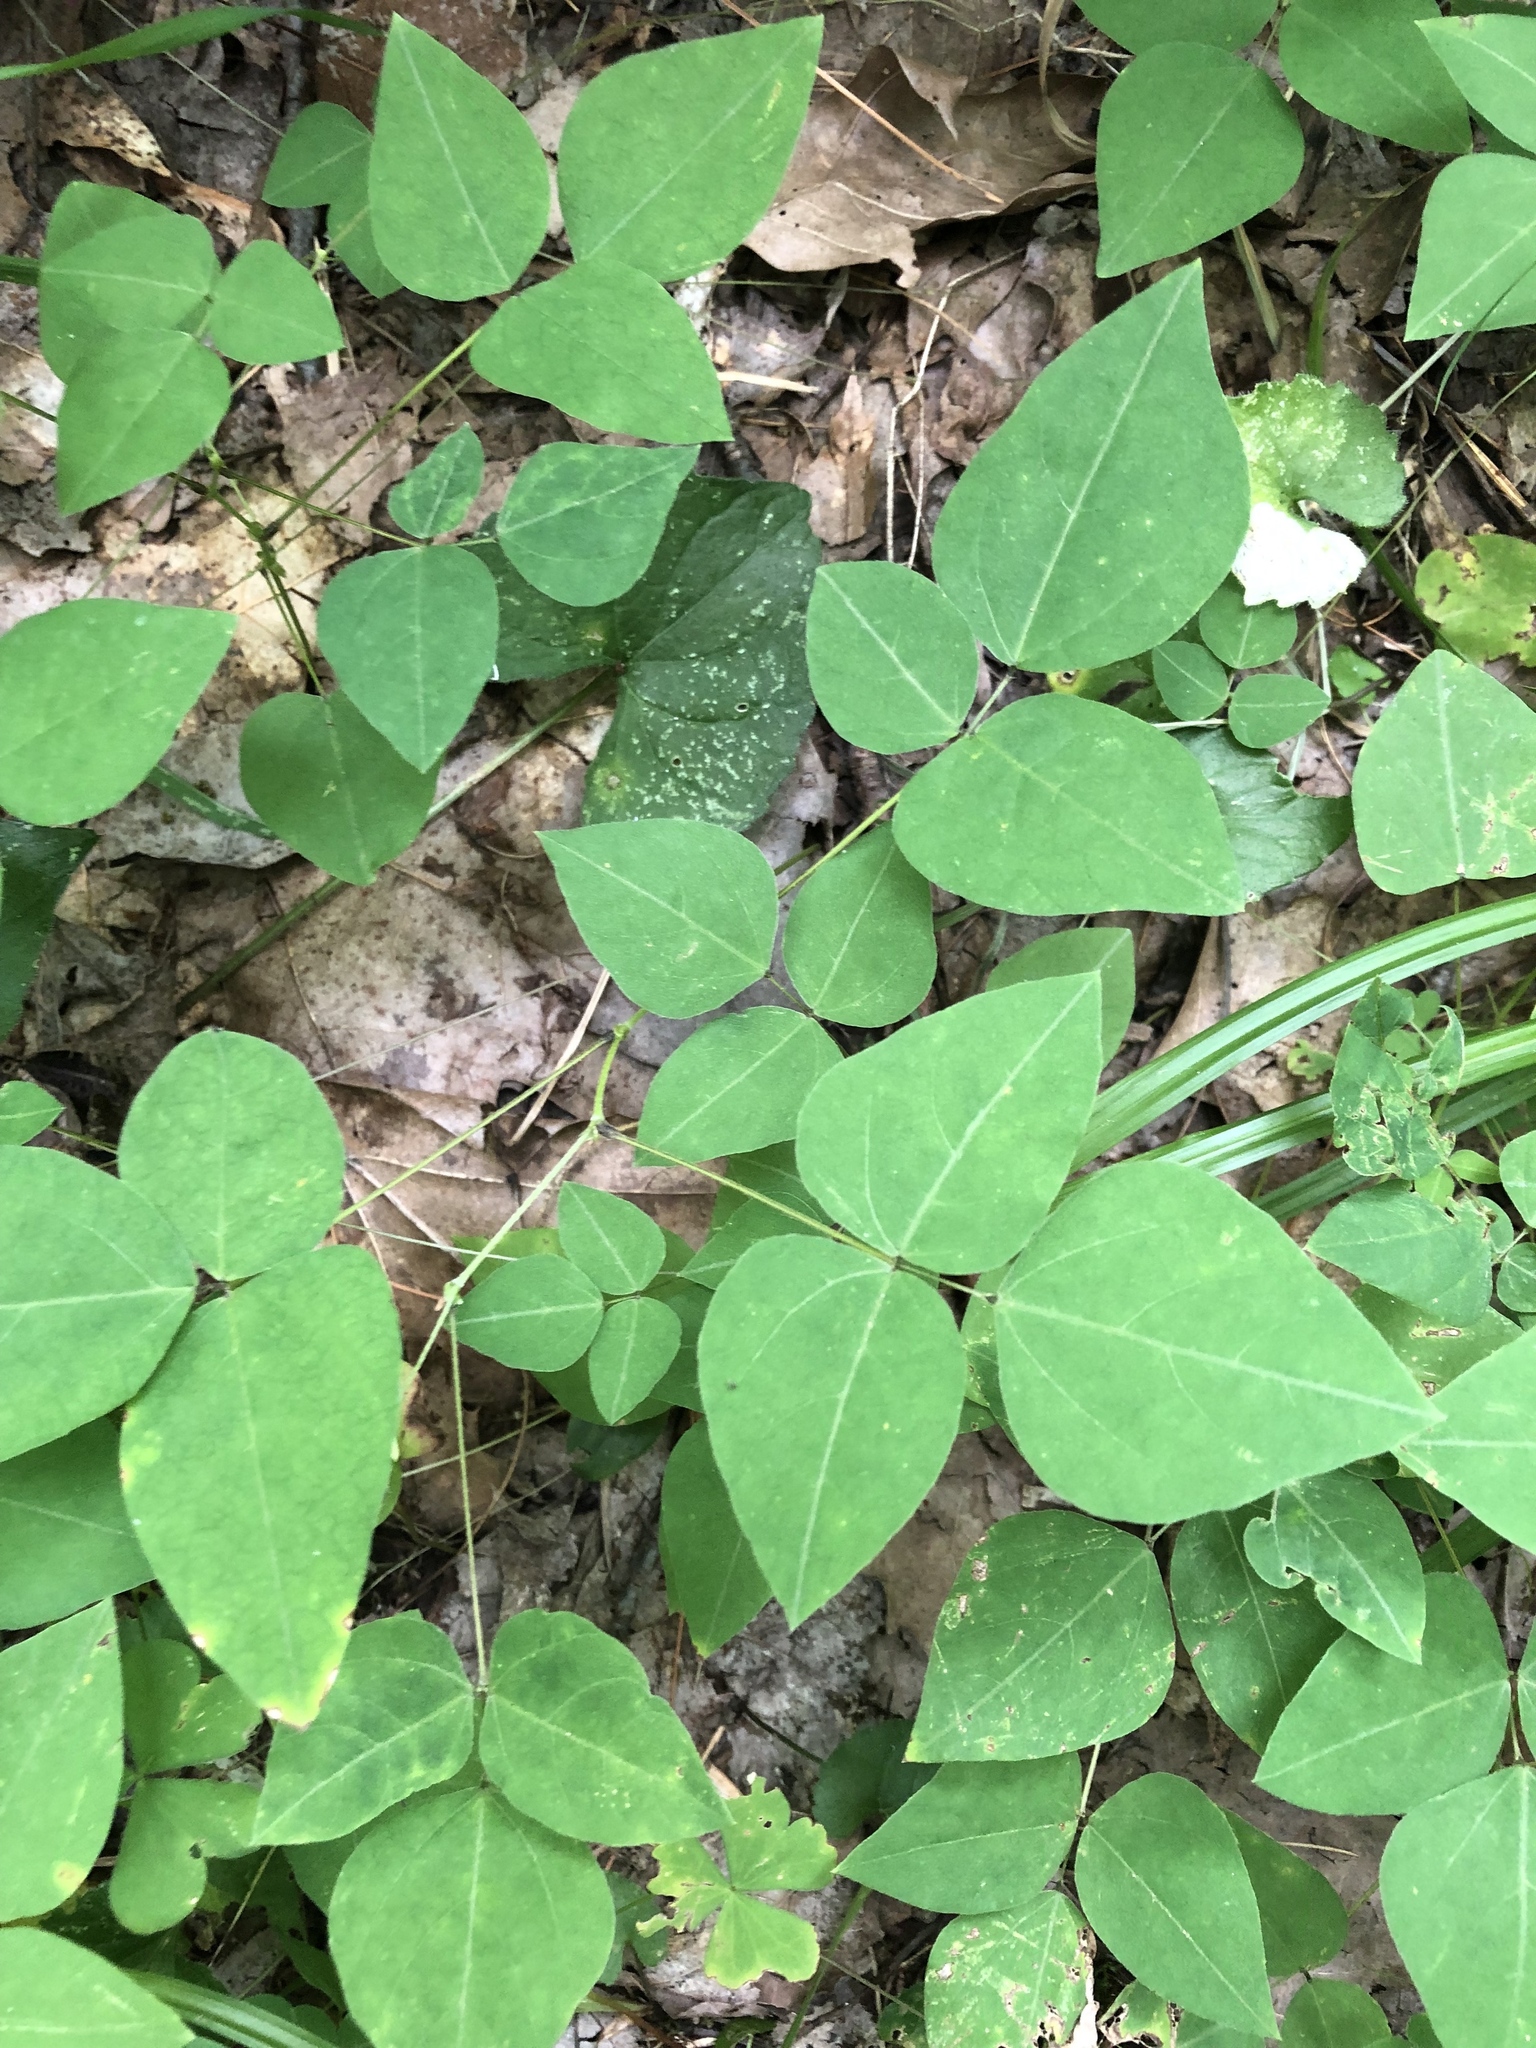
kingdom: Plantae
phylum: Tracheophyta
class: Magnoliopsida
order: Fabales
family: Fabaceae
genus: Amphicarpaea
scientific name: Amphicarpaea bracteata
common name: American hog peanut
